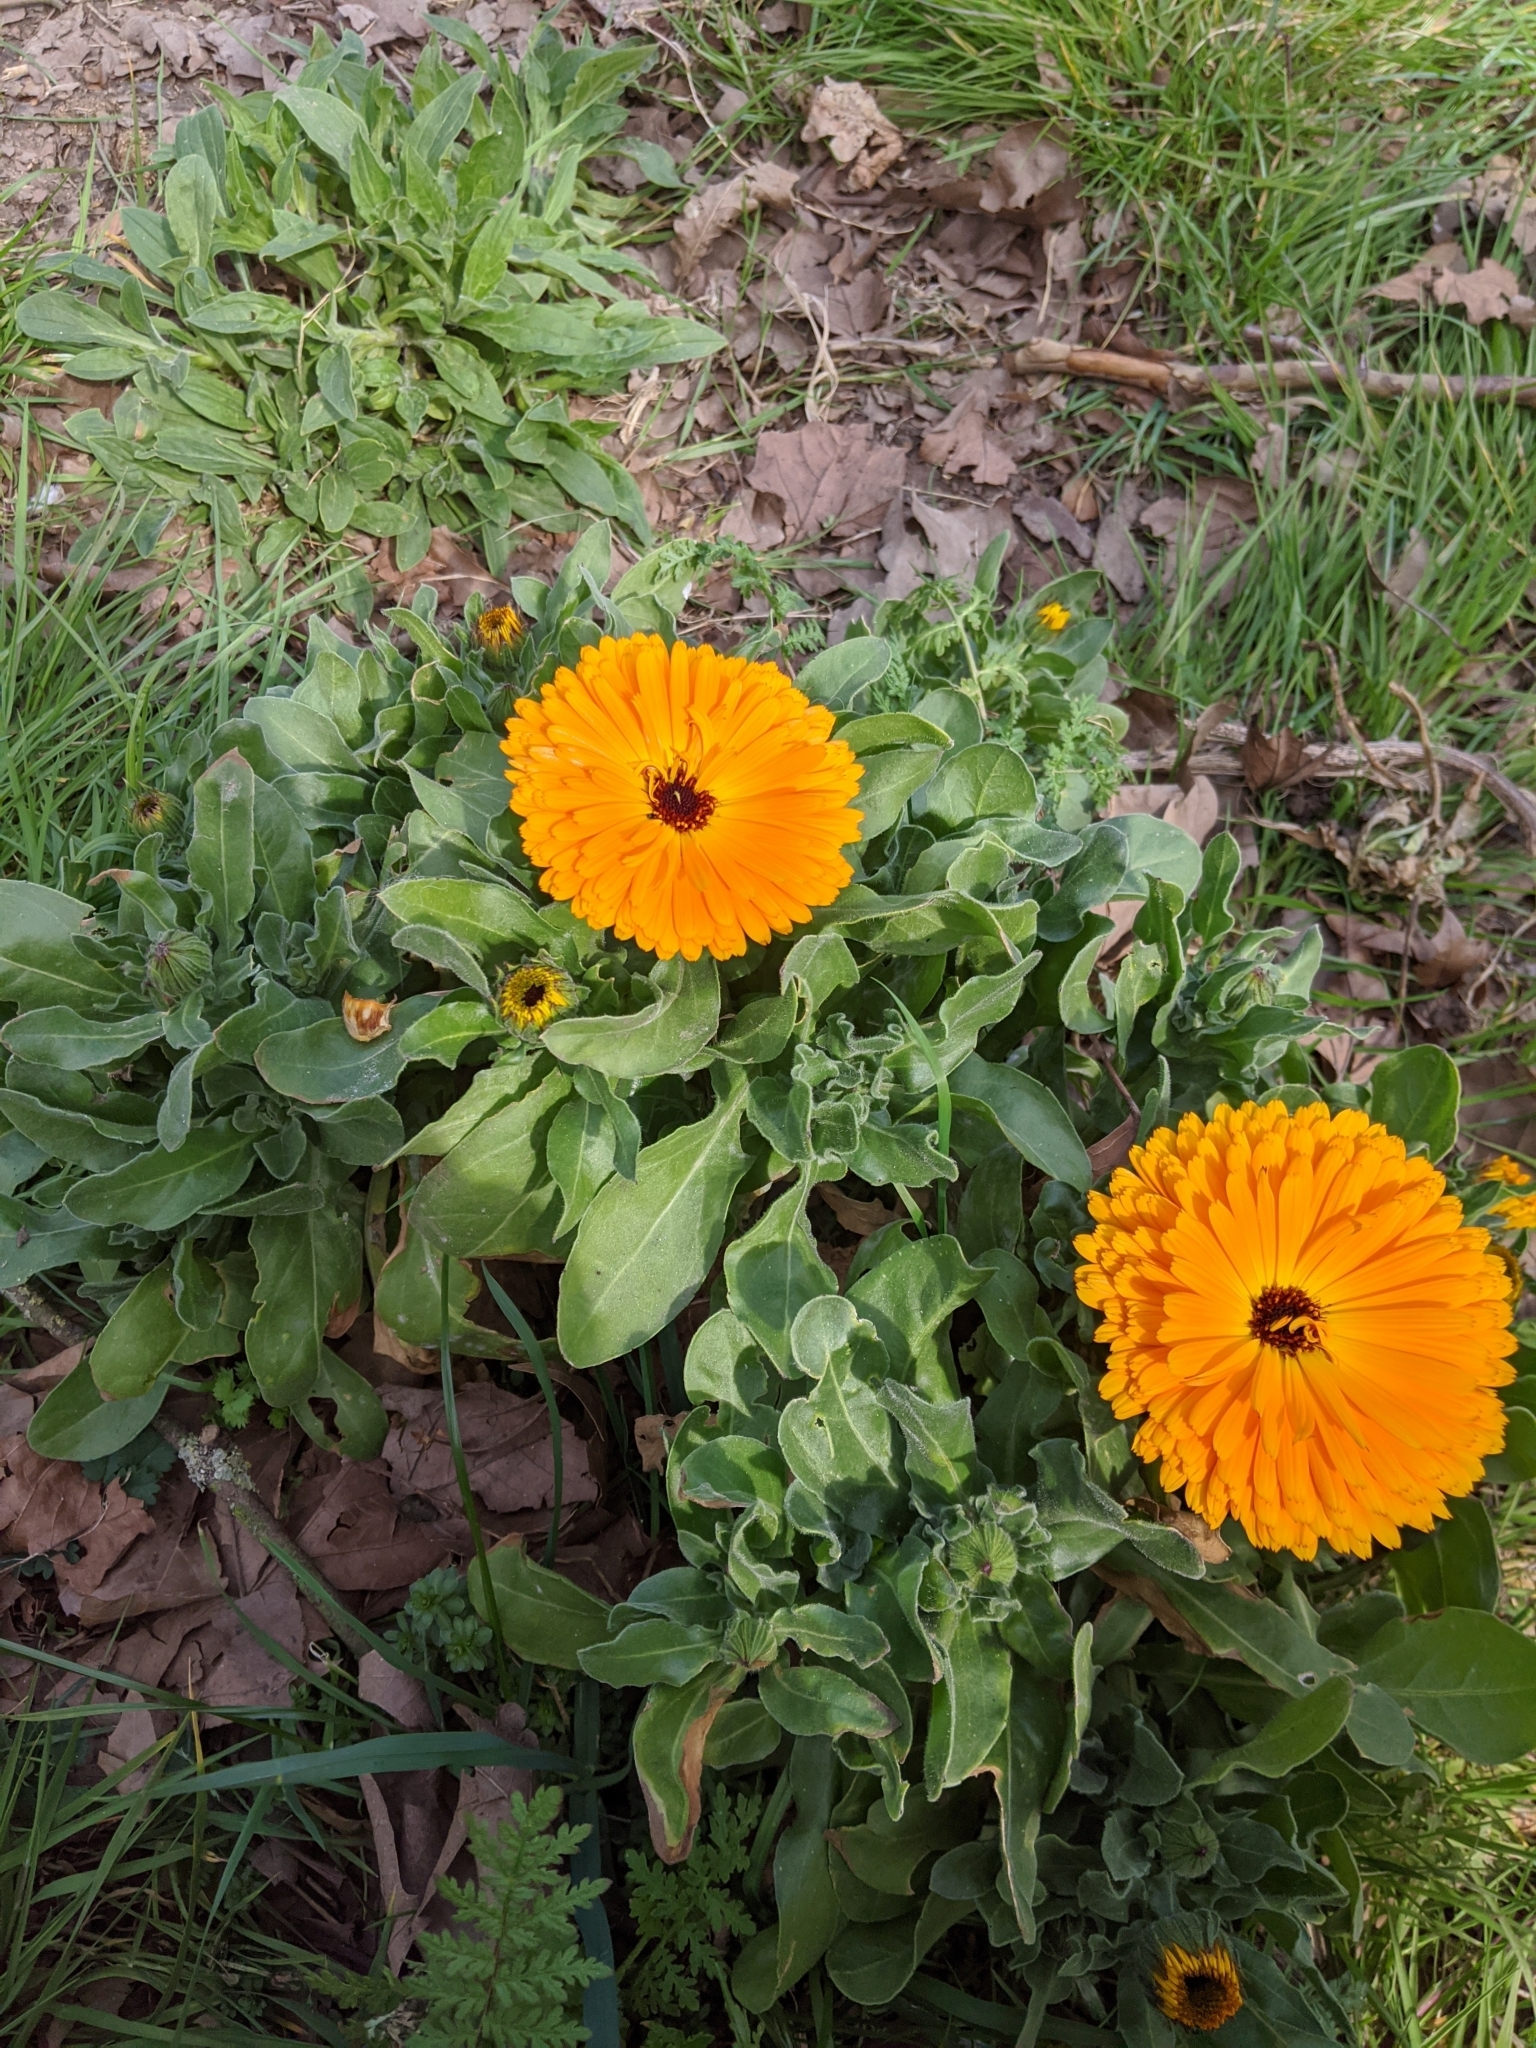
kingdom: Plantae
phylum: Tracheophyta
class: Magnoliopsida
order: Asterales
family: Asteraceae
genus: Calendula
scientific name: Calendula officinalis
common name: Pot marigold
